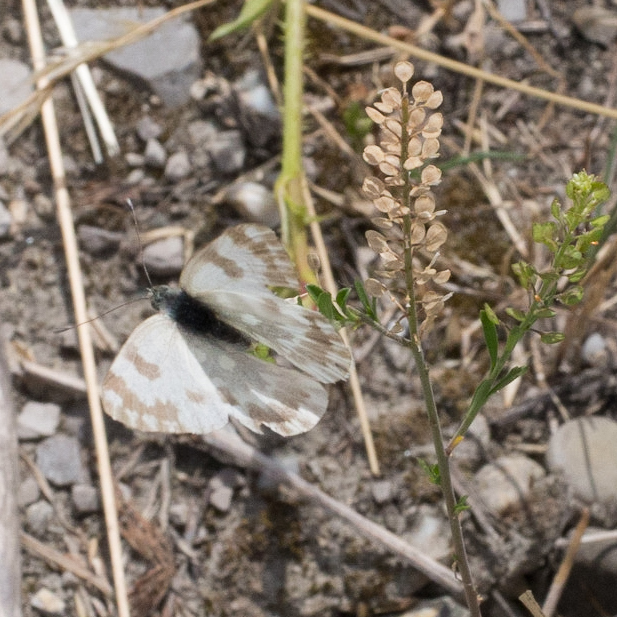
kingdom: Animalia
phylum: Arthropoda
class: Insecta
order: Lepidoptera
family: Pieridae
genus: Pontia
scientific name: Pontia edusa
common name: Eastern bath white
